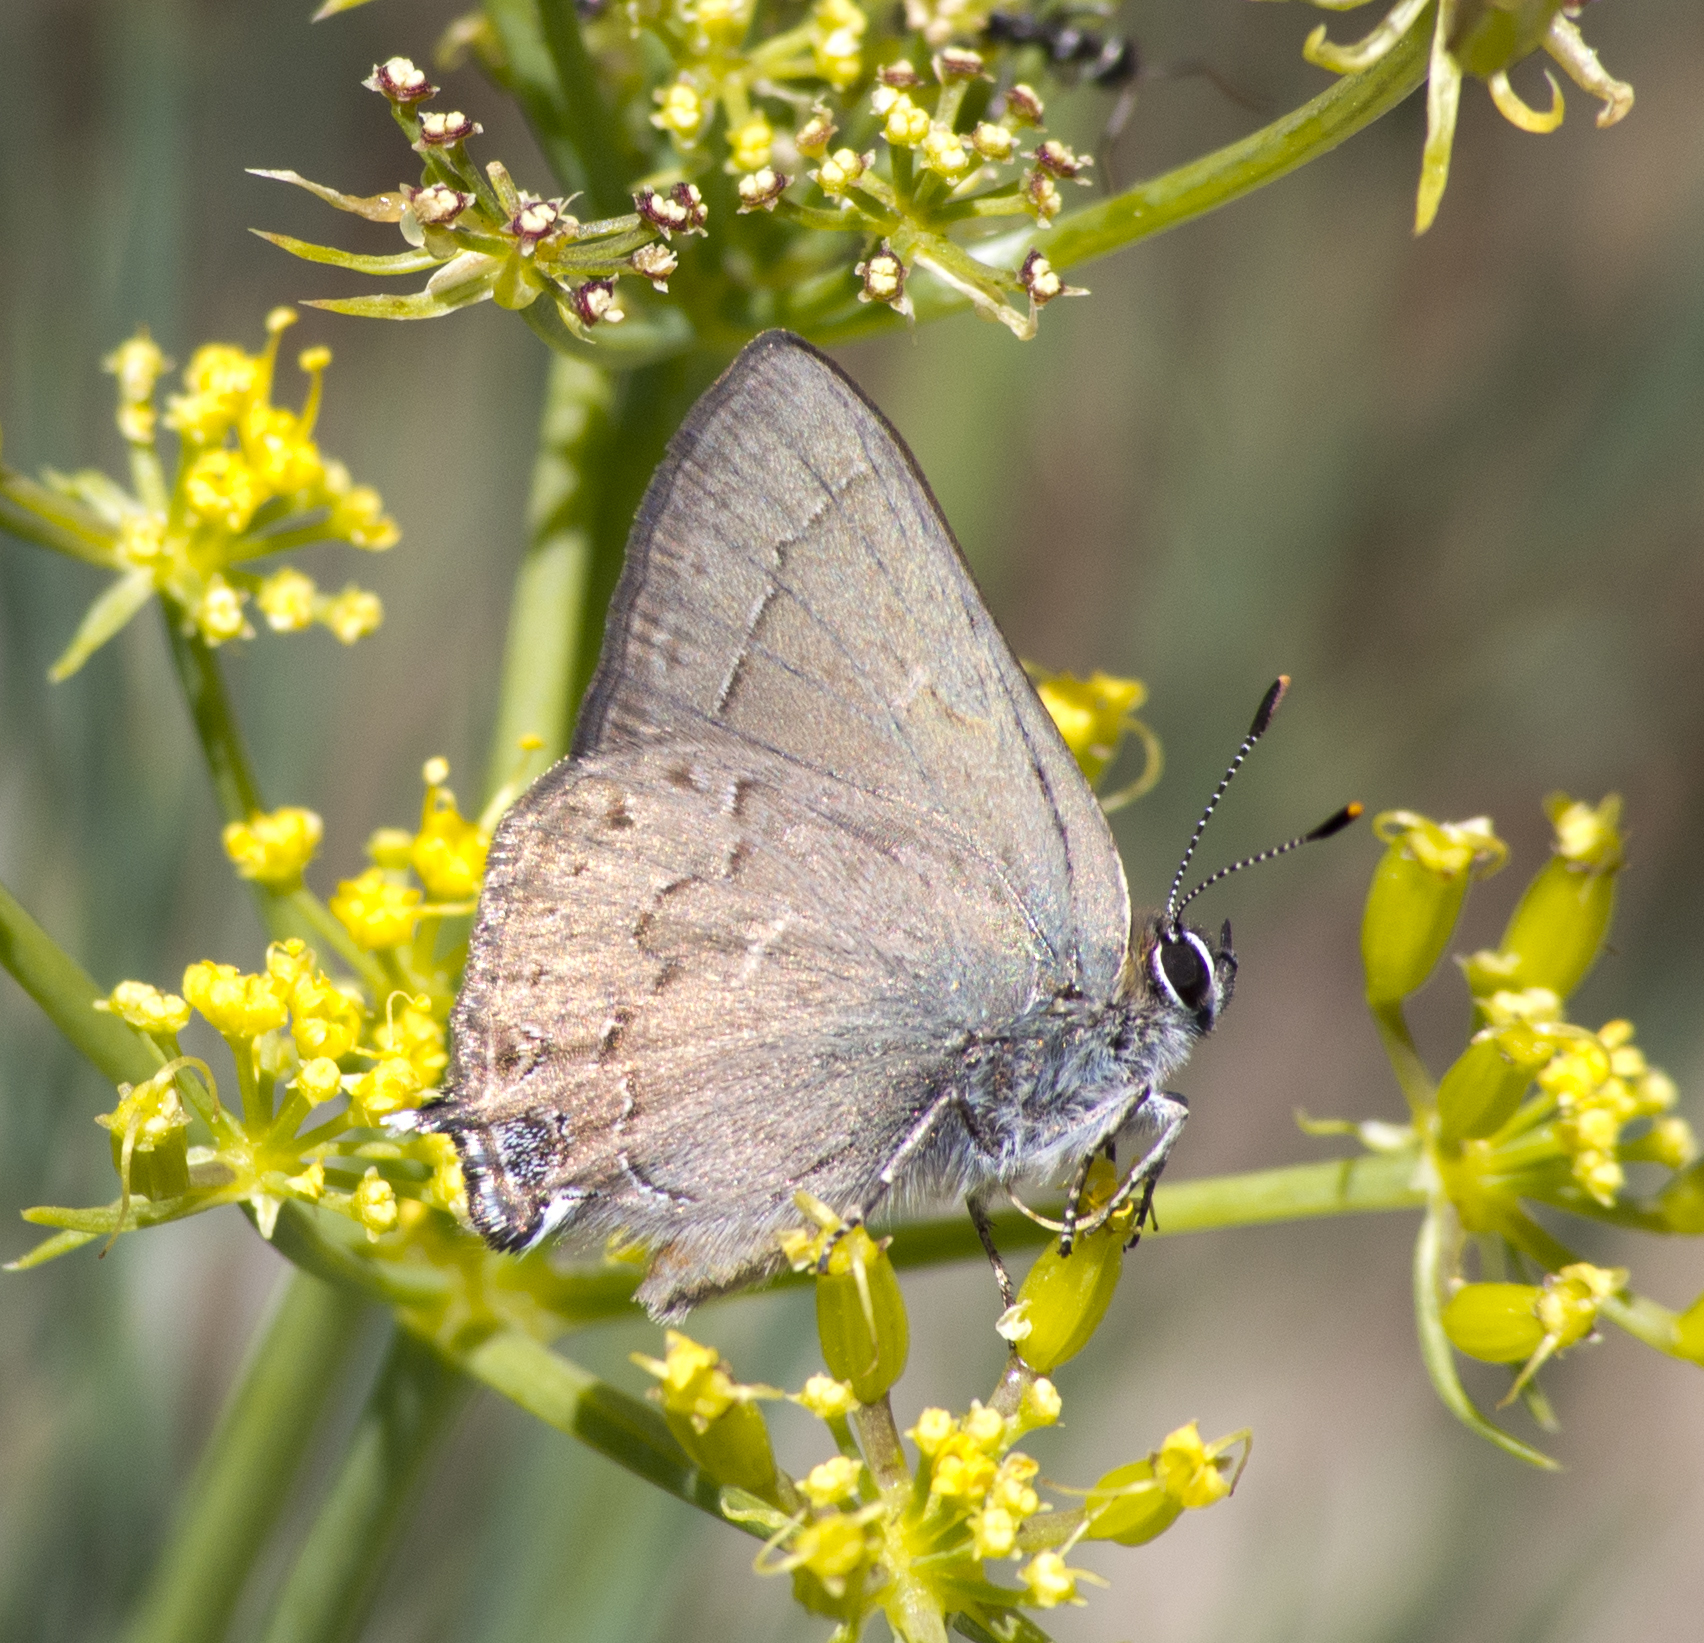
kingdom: Animalia
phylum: Arthropoda
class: Insecta
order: Lepidoptera
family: Lycaenidae
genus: Strymon
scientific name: Strymon saepium
